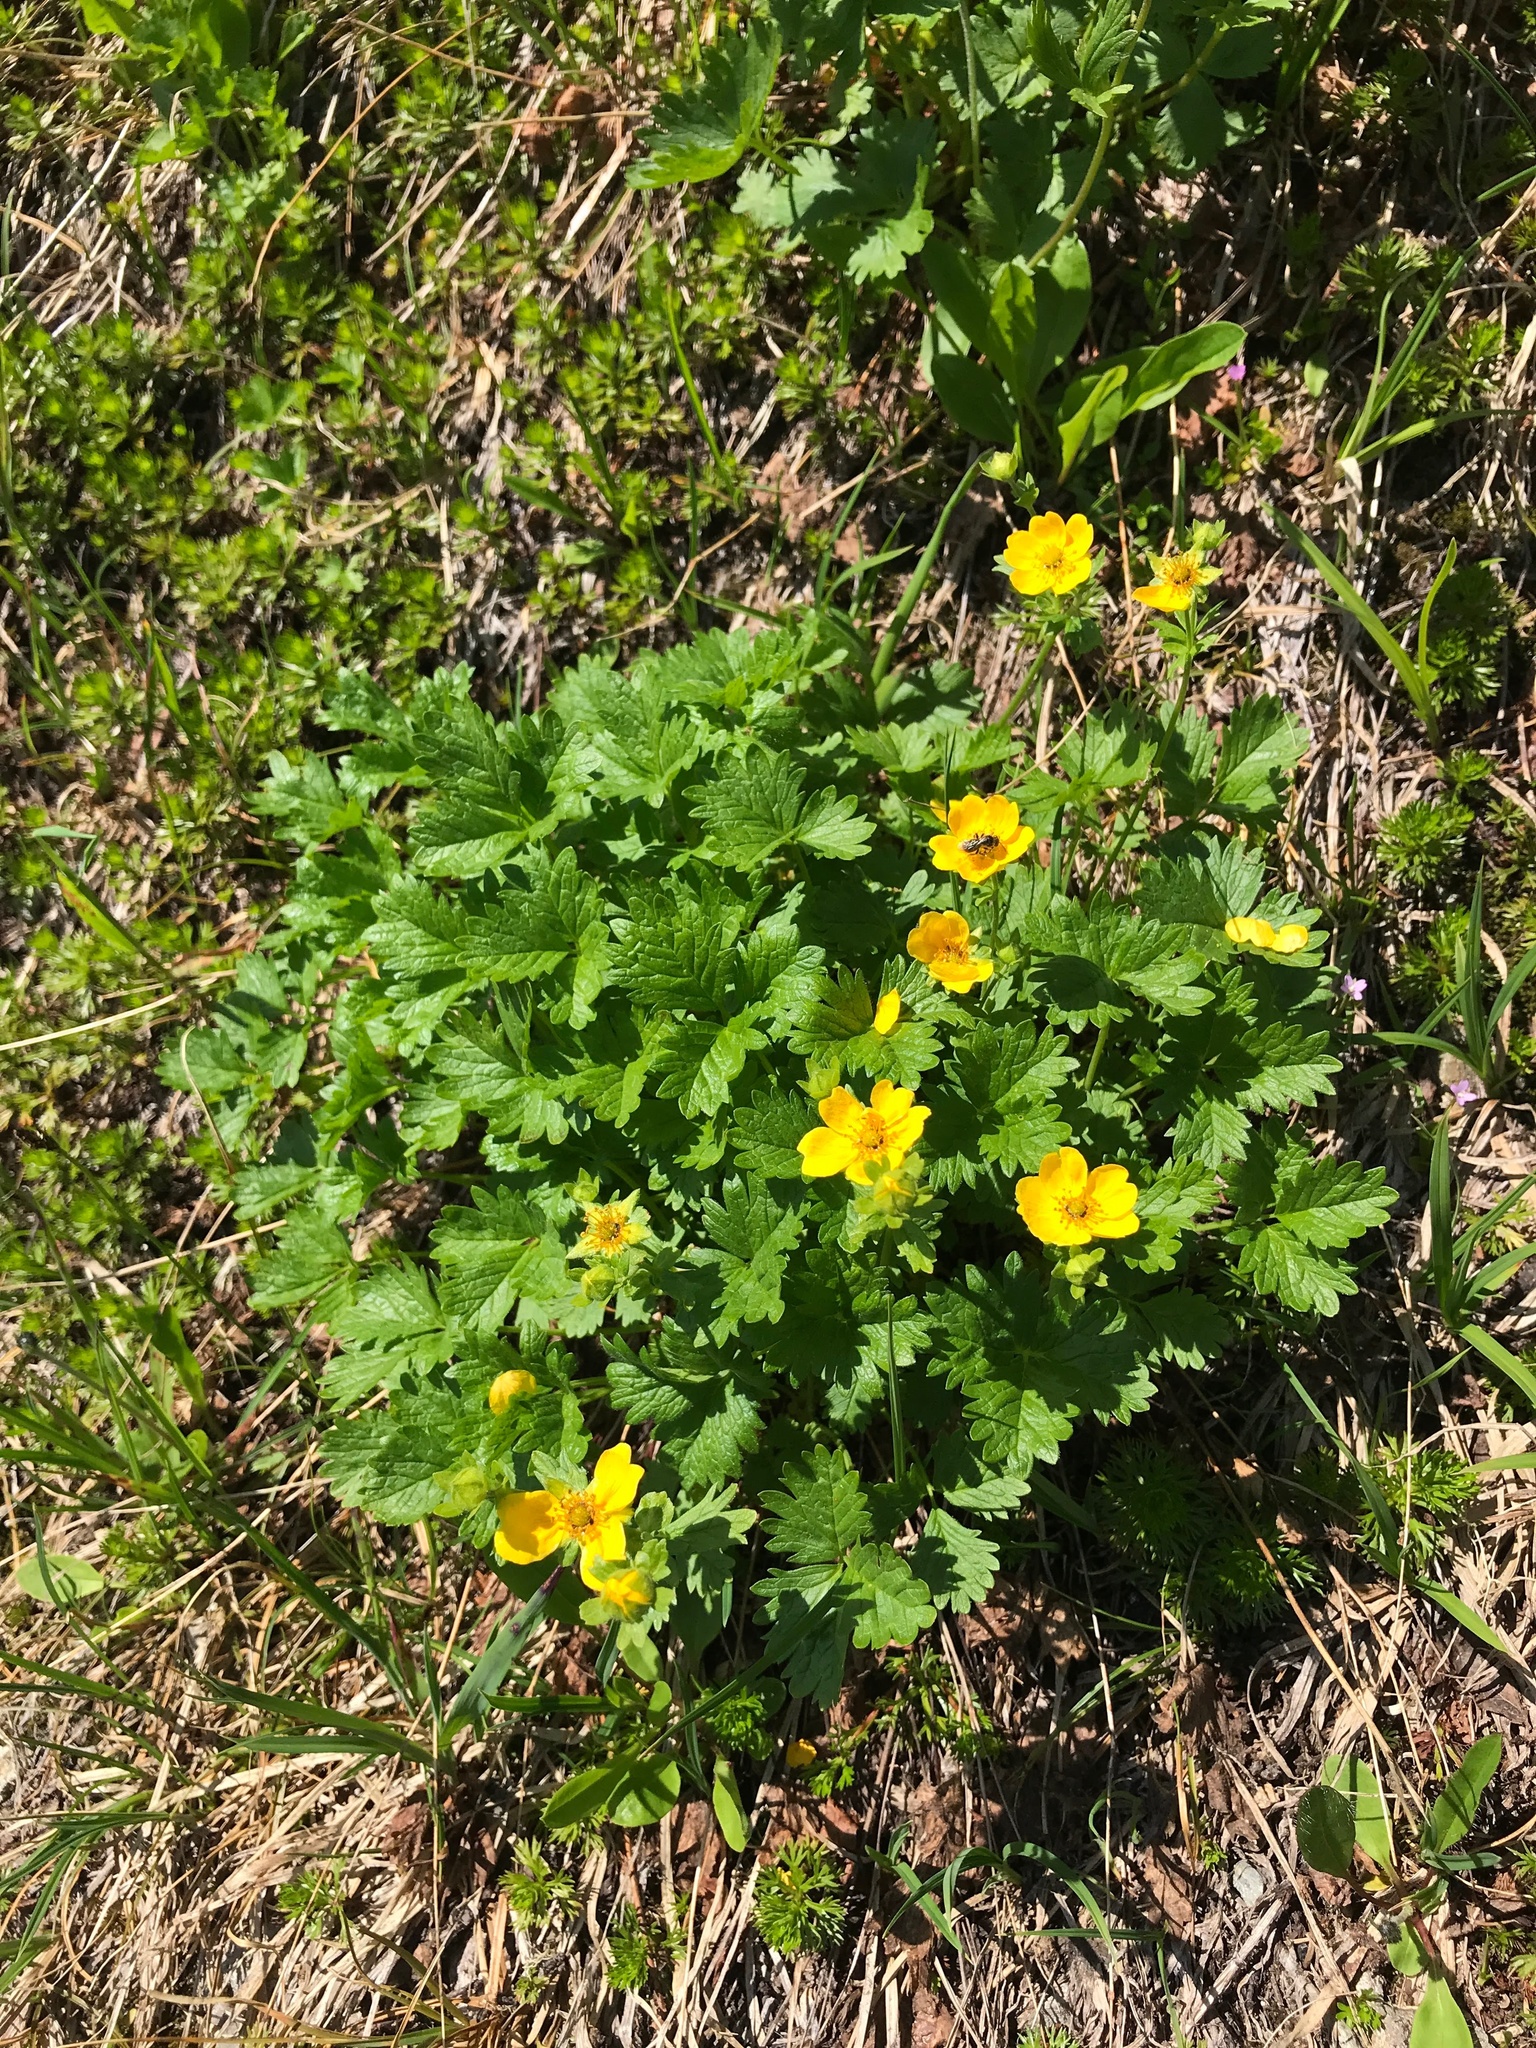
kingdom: Plantae
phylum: Tracheophyta
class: Magnoliopsida
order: Rosales
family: Rosaceae
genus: Potentilla
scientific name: Potentilla flabellifolia
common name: Mount rainier cinquefoil
